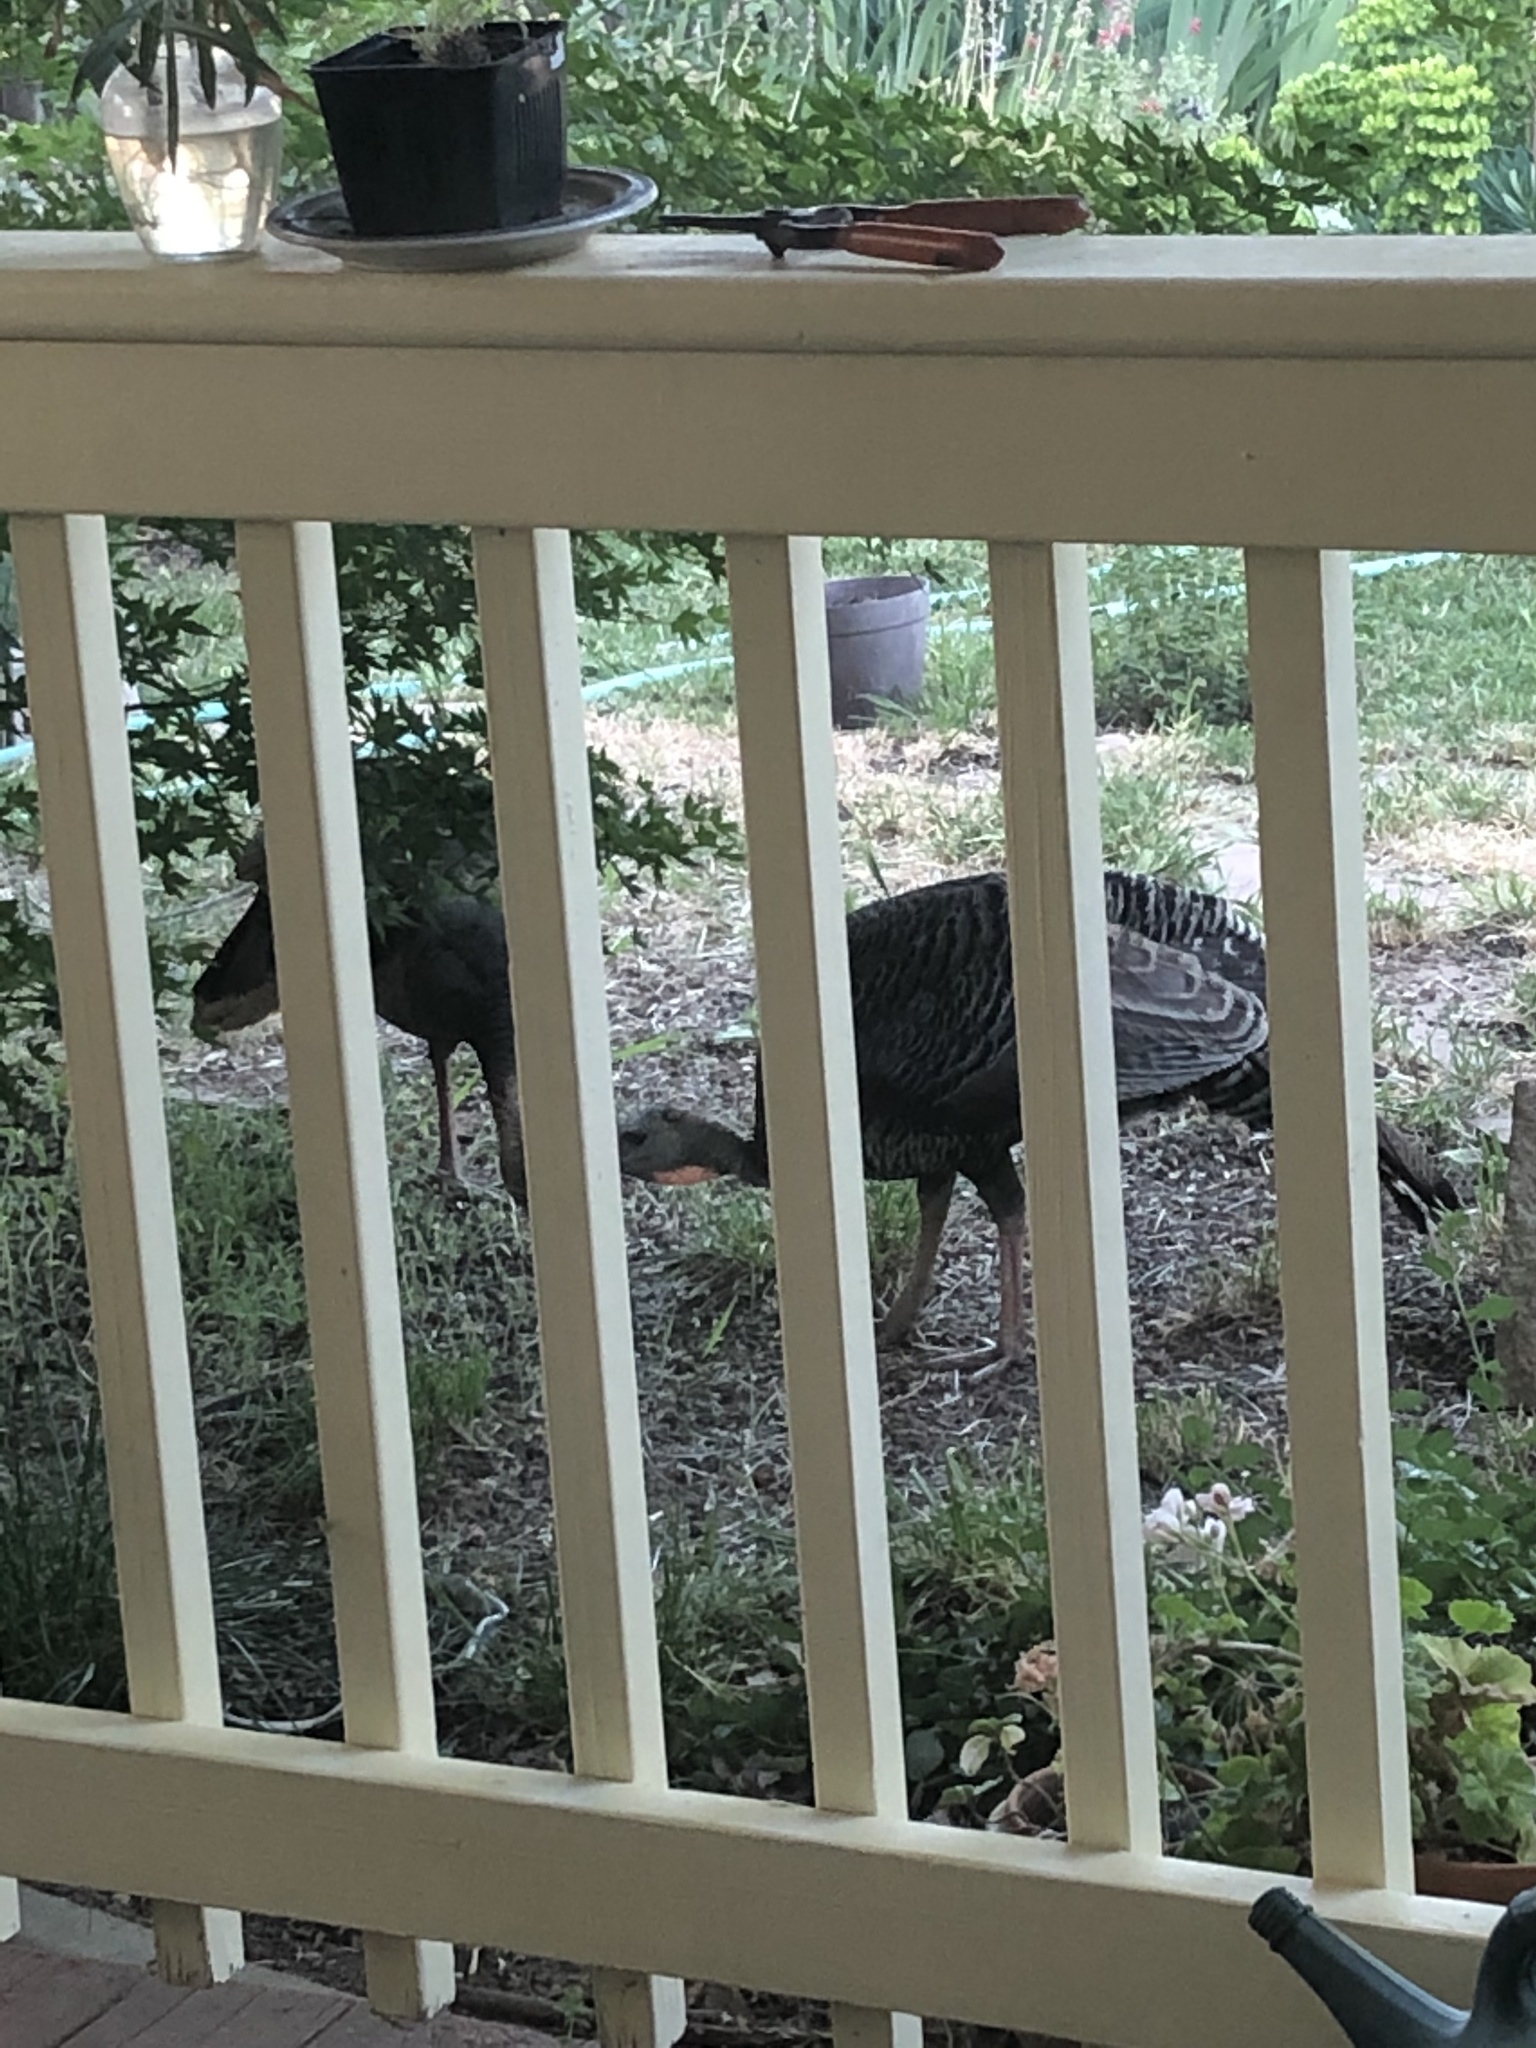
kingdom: Animalia
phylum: Chordata
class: Aves
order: Galliformes
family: Phasianidae
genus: Meleagris
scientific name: Meleagris gallopavo
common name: Wild turkey
